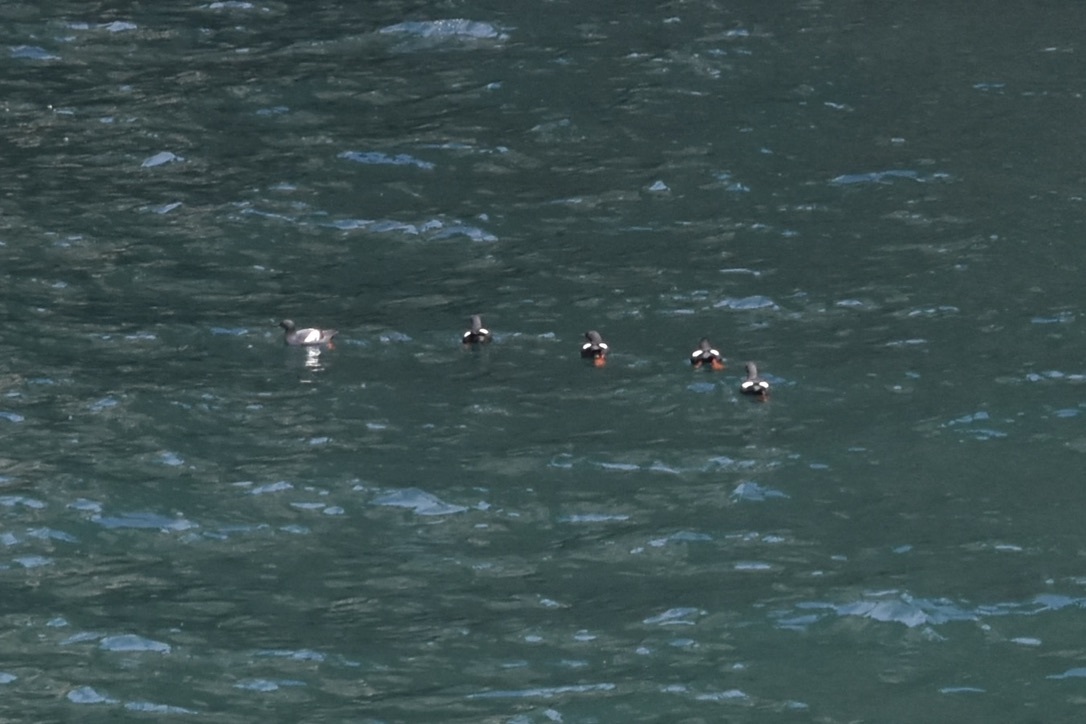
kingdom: Animalia
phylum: Chordata
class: Aves
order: Charadriiformes
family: Alcidae
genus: Cepphus
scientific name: Cepphus columba
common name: Pigeon guillemot
